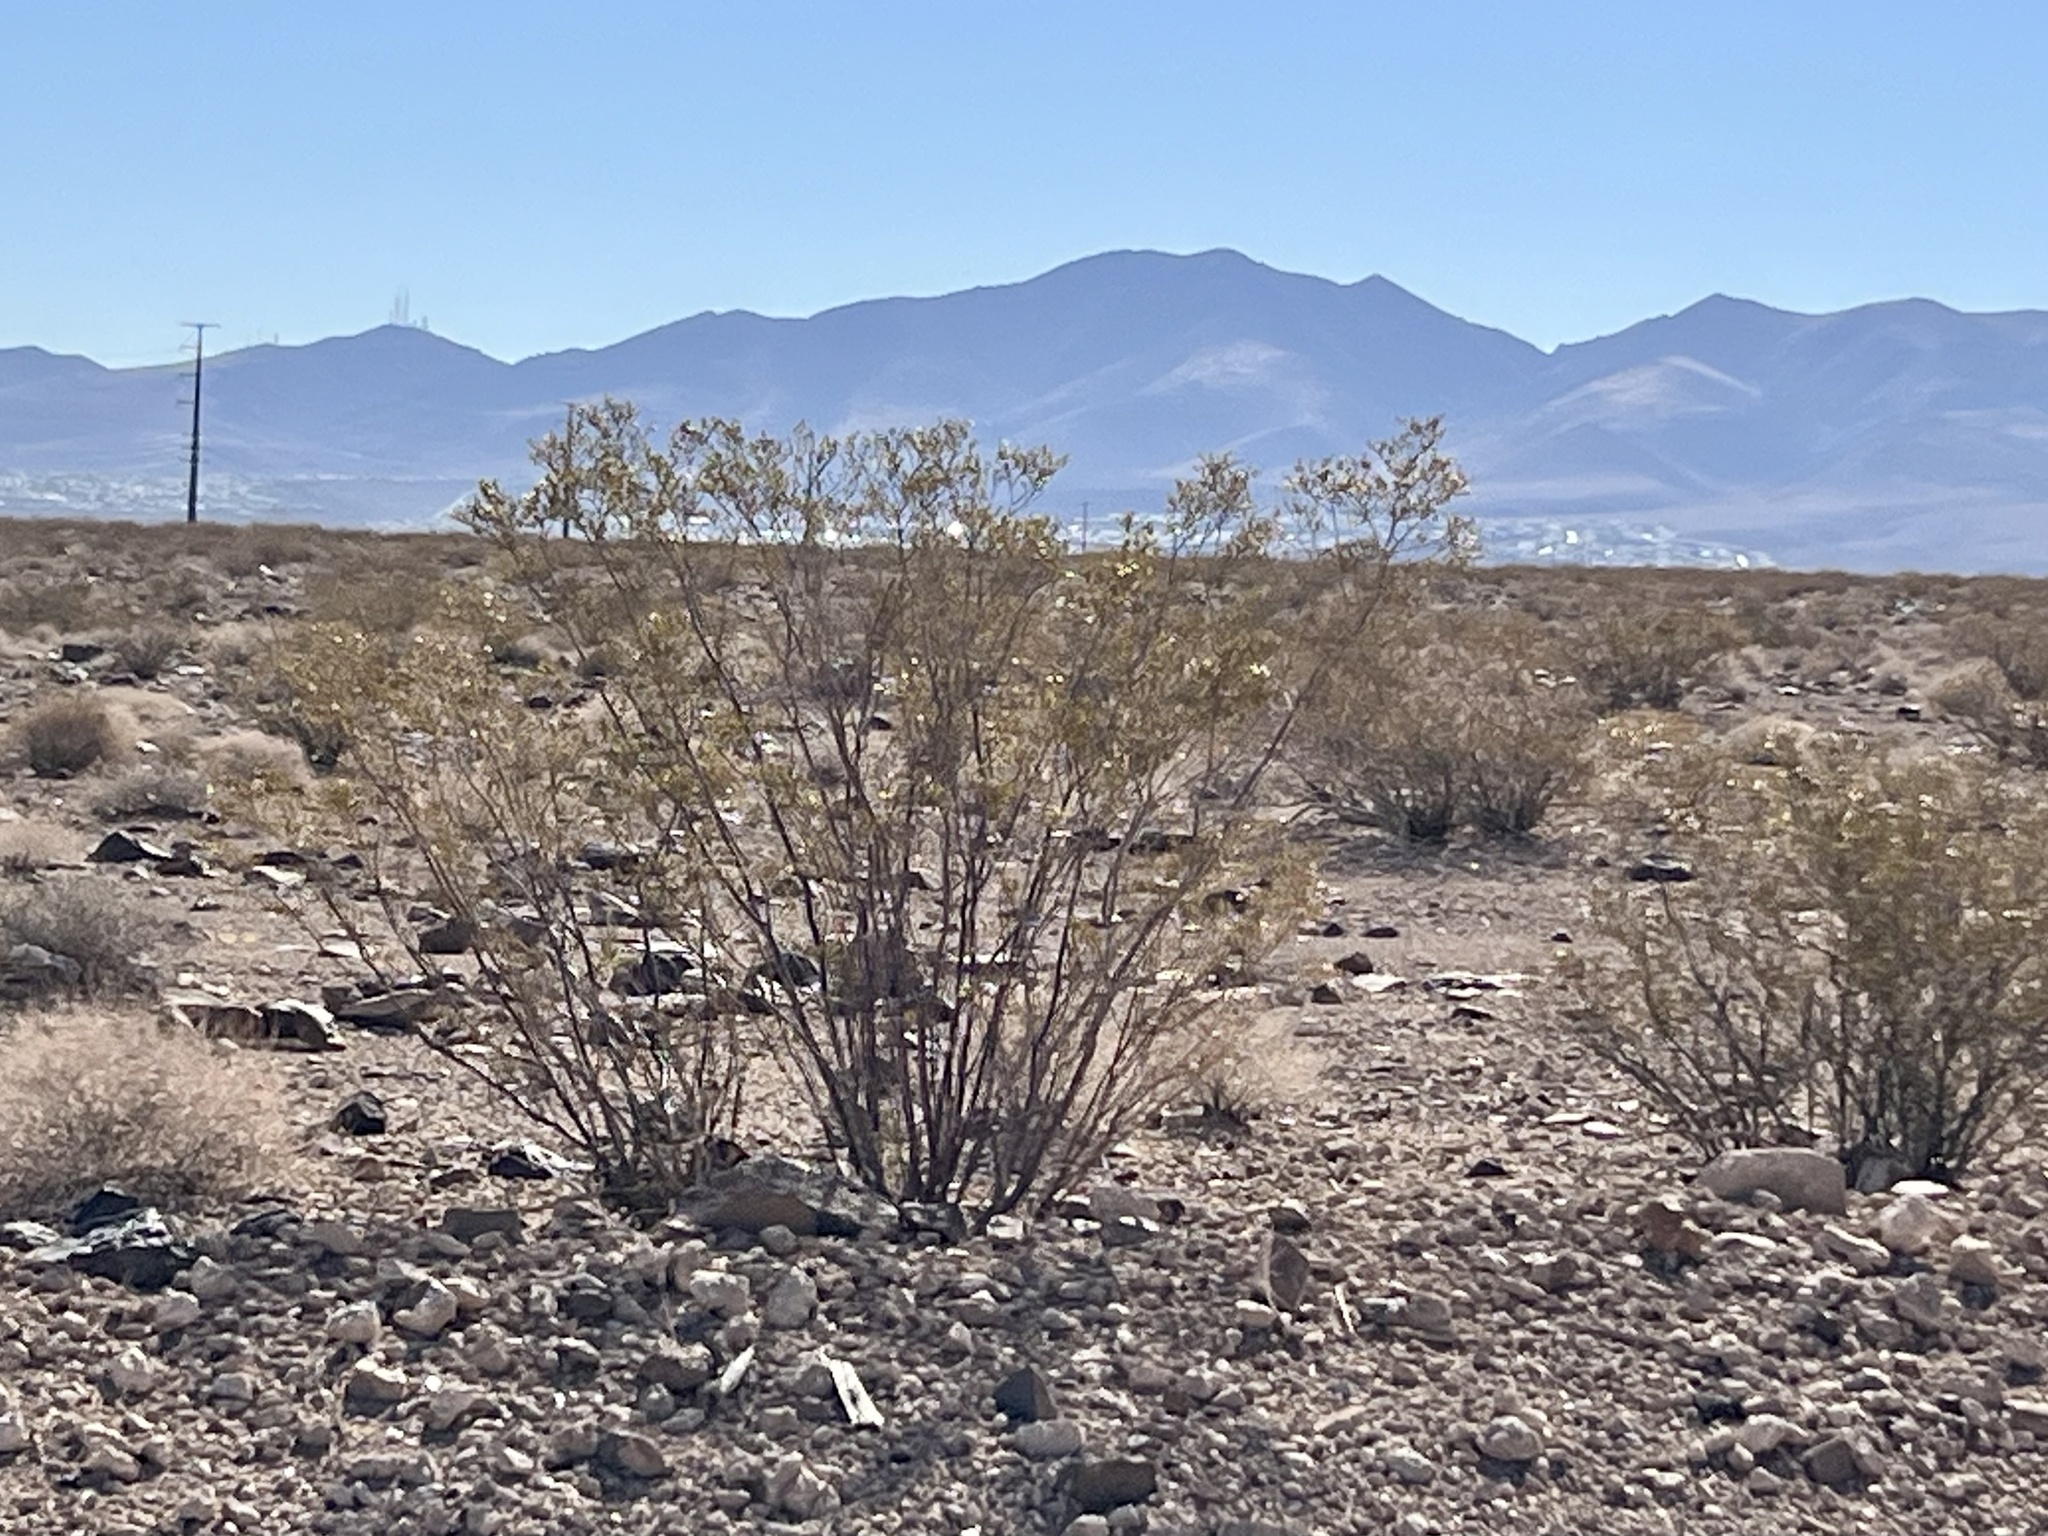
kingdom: Plantae
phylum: Tracheophyta
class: Magnoliopsida
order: Zygophyllales
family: Zygophyllaceae
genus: Larrea
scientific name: Larrea tridentata
